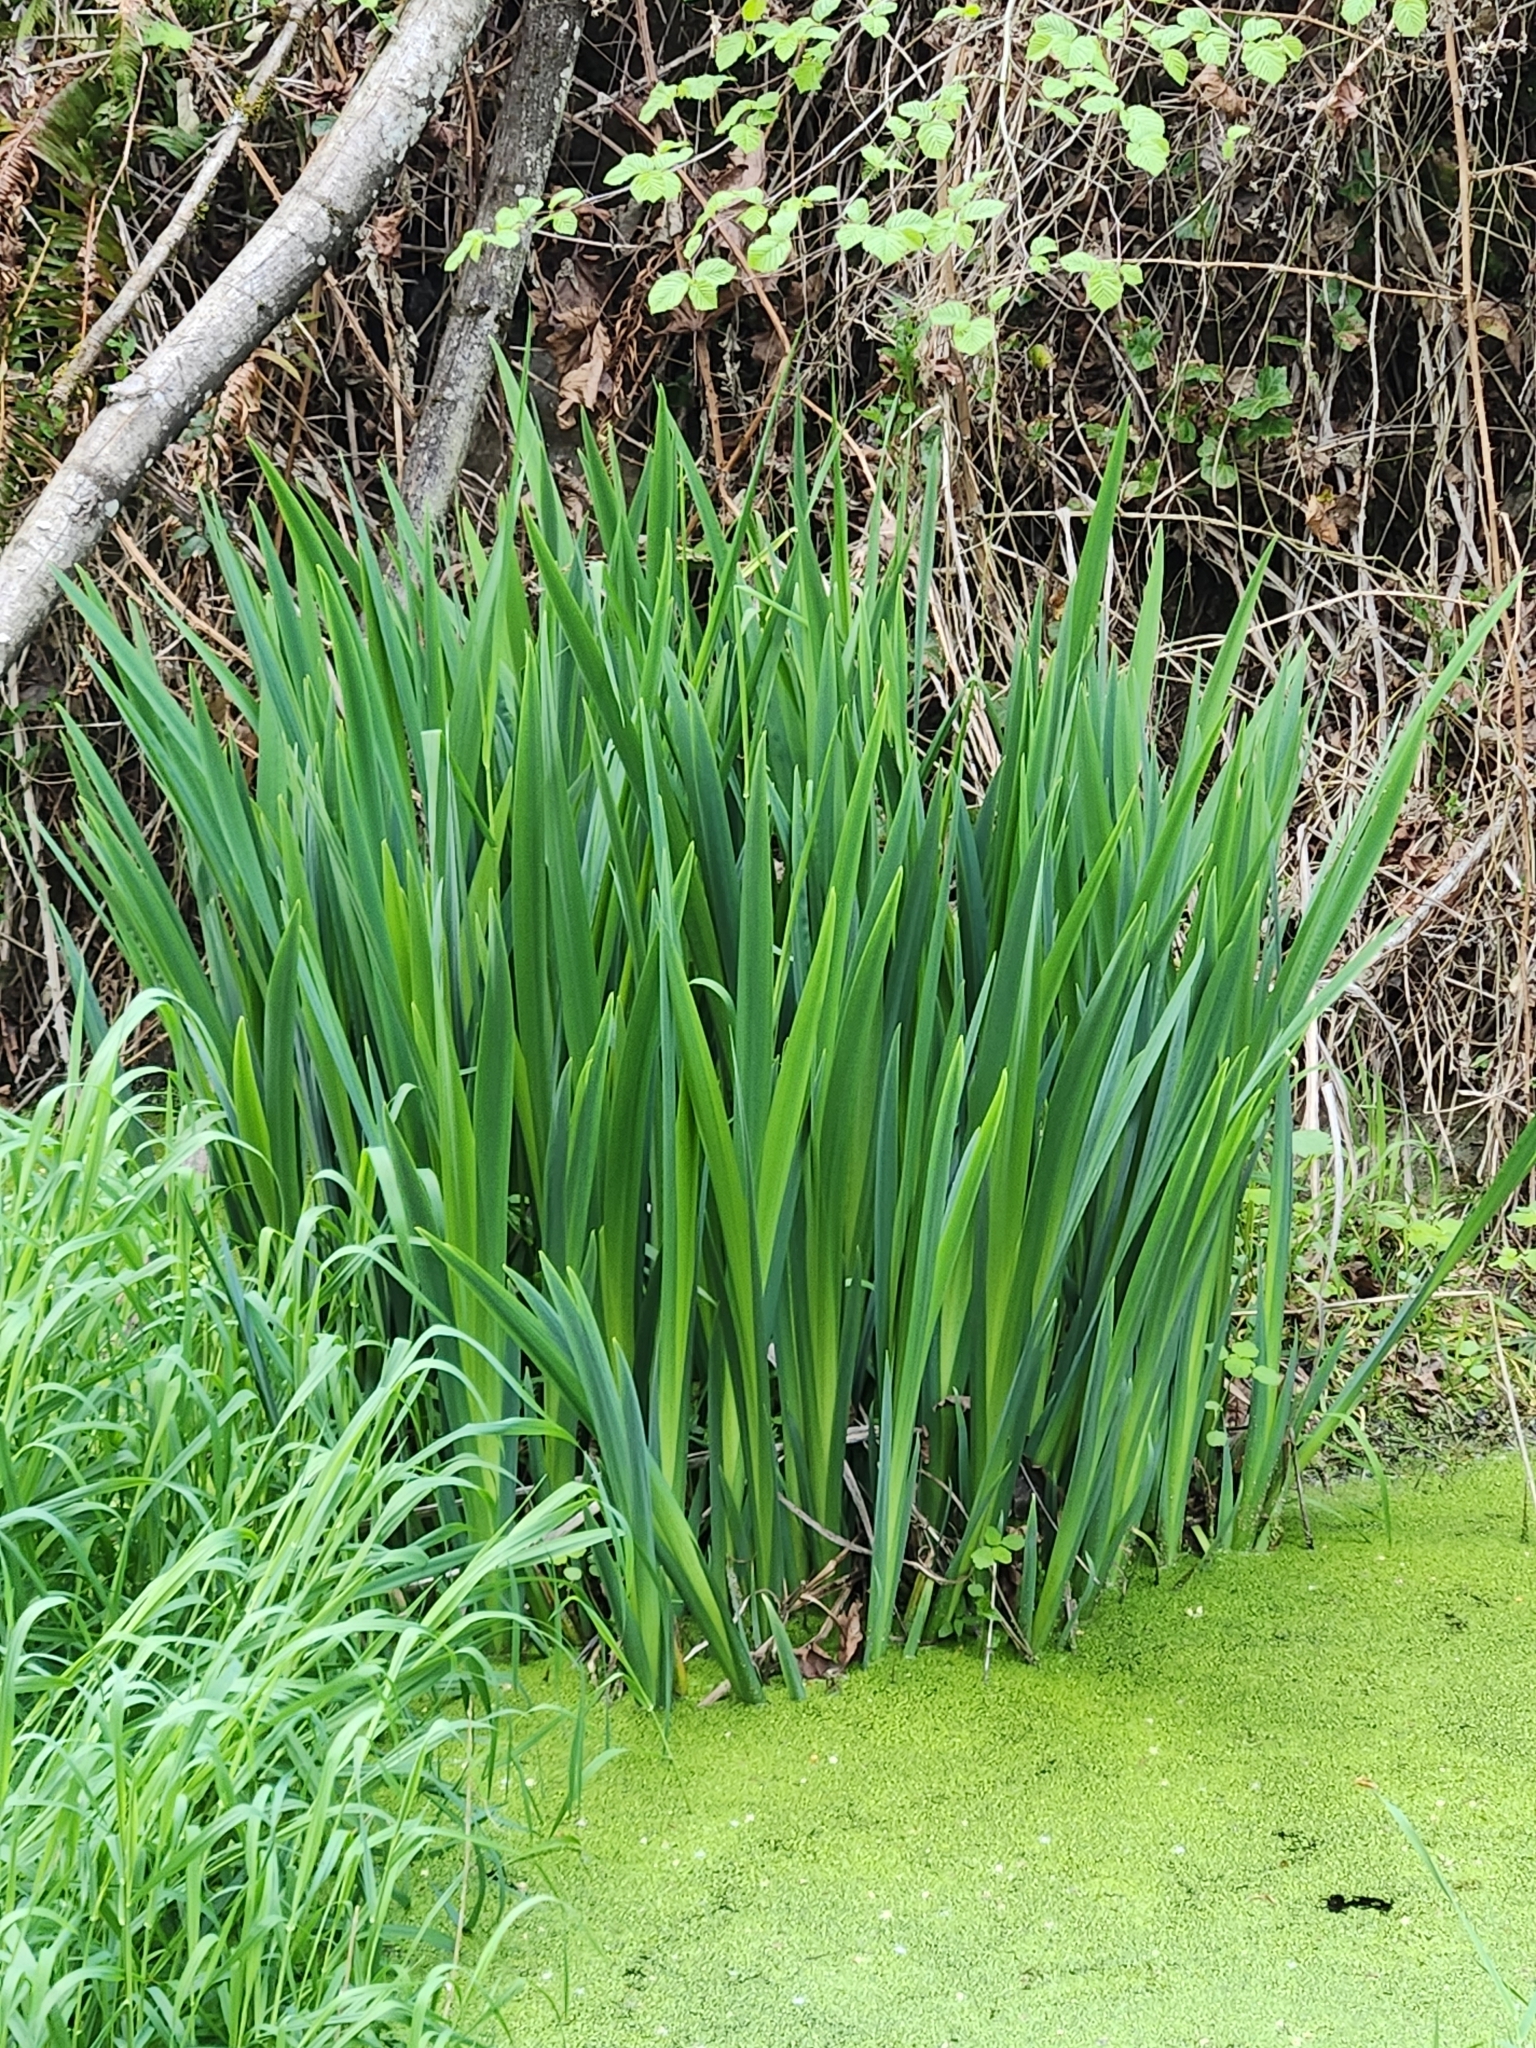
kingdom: Plantae
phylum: Tracheophyta
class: Liliopsida
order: Asparagales
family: Iridaceae
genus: Iris
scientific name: Iris pseudacorus
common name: Yellow flag
